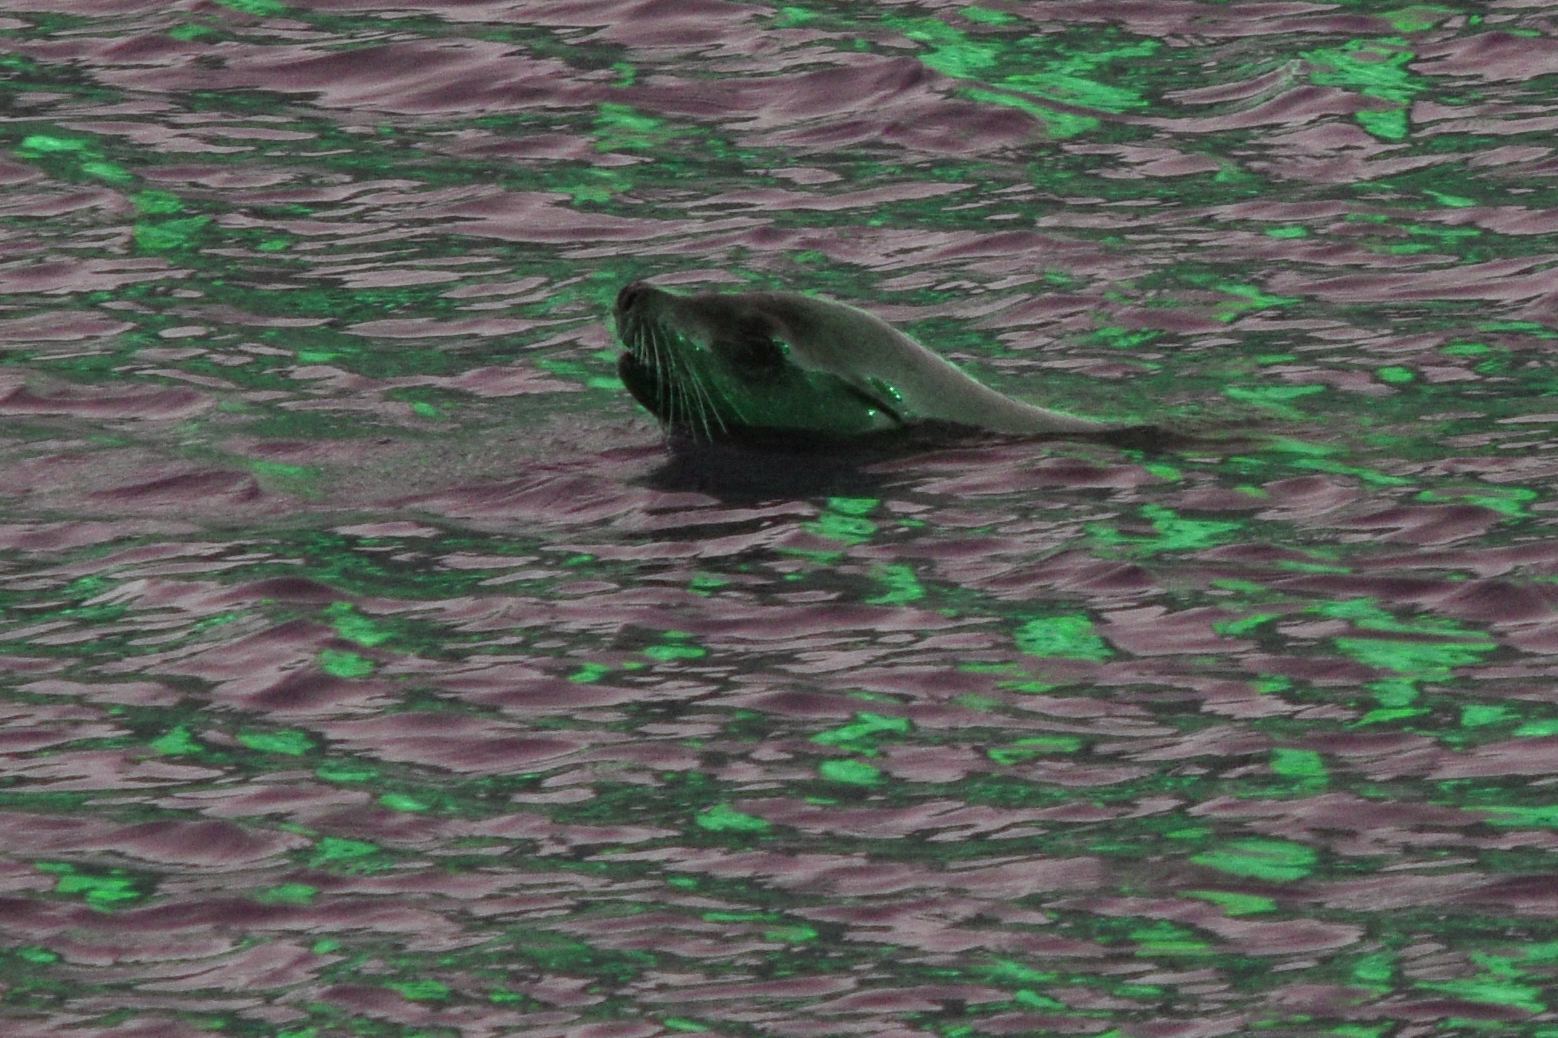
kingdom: Animalia
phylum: Chordata
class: Mammalia
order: Carnivora
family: Otariidae
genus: Zalophus
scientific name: Zalophus californianus
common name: California sea lion
